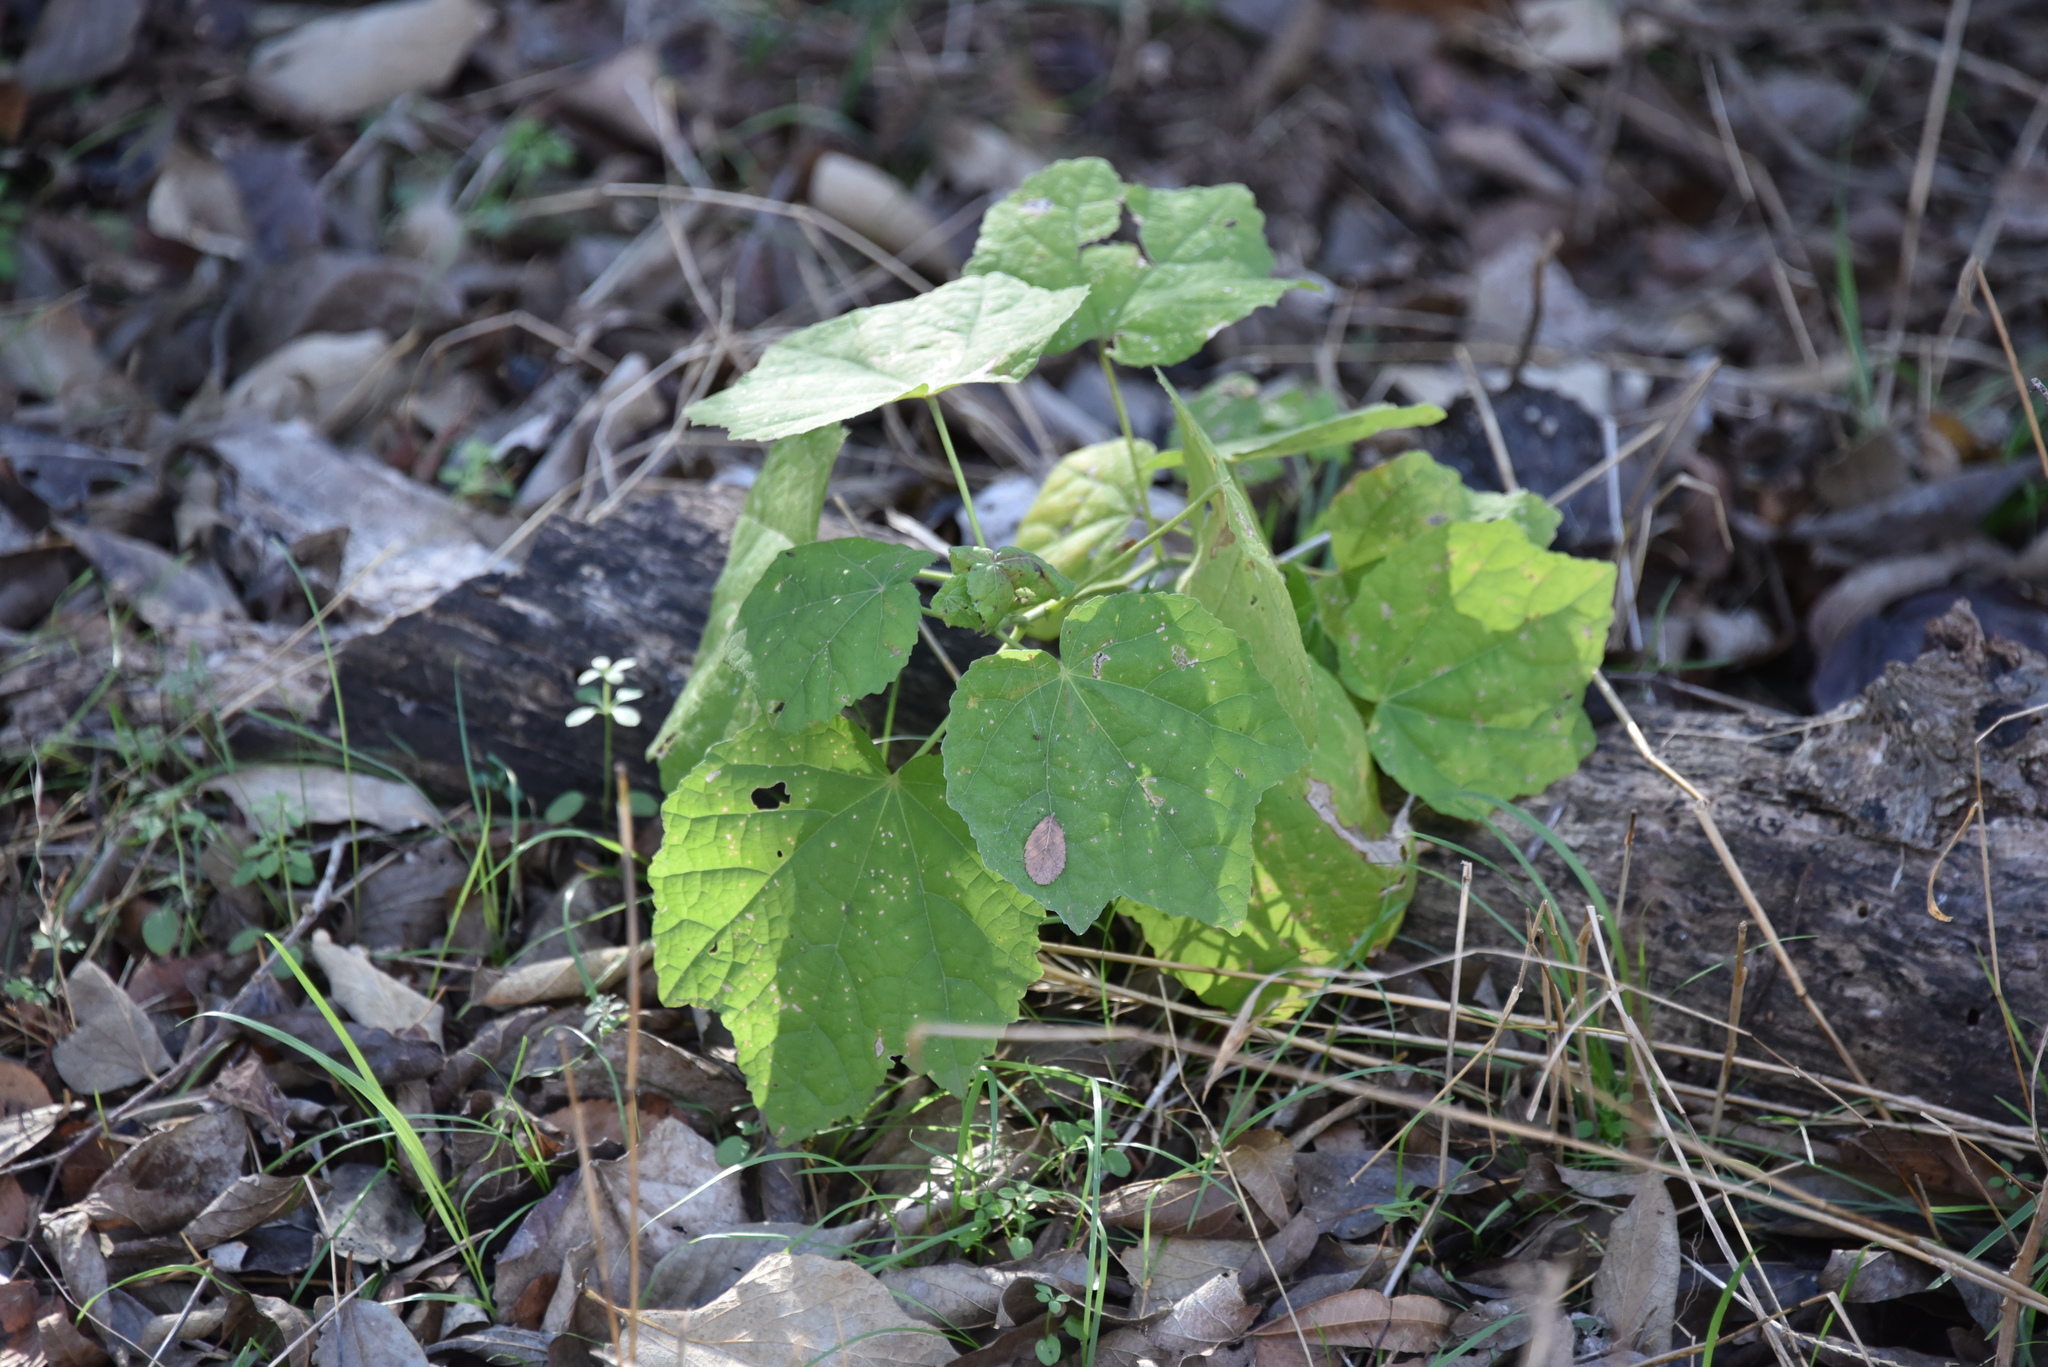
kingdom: Plantae
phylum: Tracheophyta
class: Magnoliopsida
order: Malvales
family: Malvaceae
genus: Malvaviscus
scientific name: Malvaviscus arboreus
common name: Wax mallow
